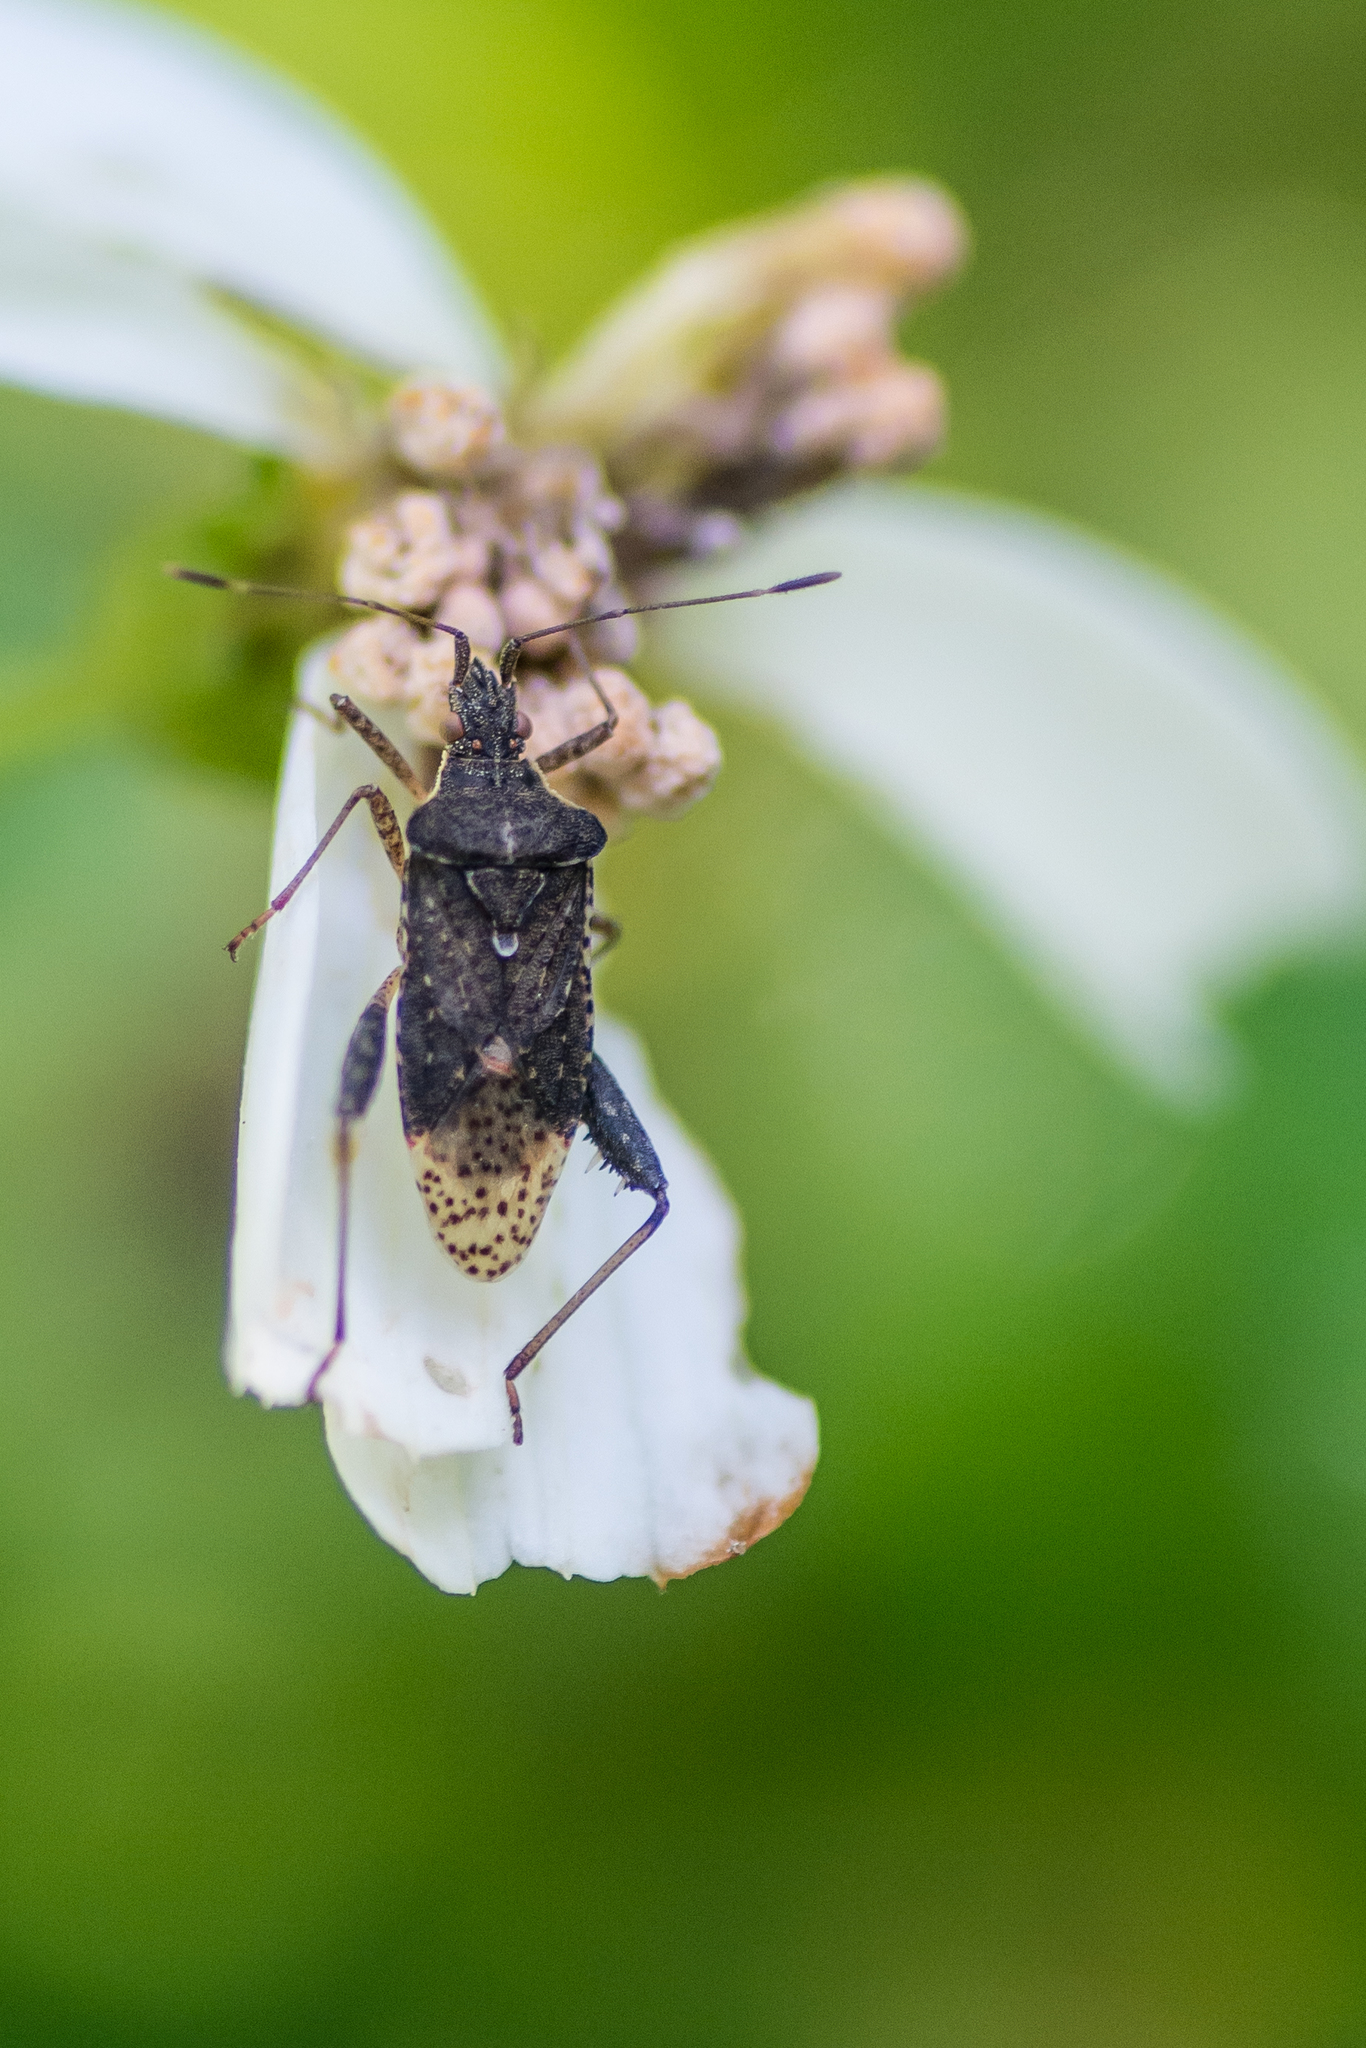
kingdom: Animalia
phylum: Arthropoda
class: Insecta
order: Hemiptera
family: Rhopalidae
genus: Harmostes
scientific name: Harmostes serratus
